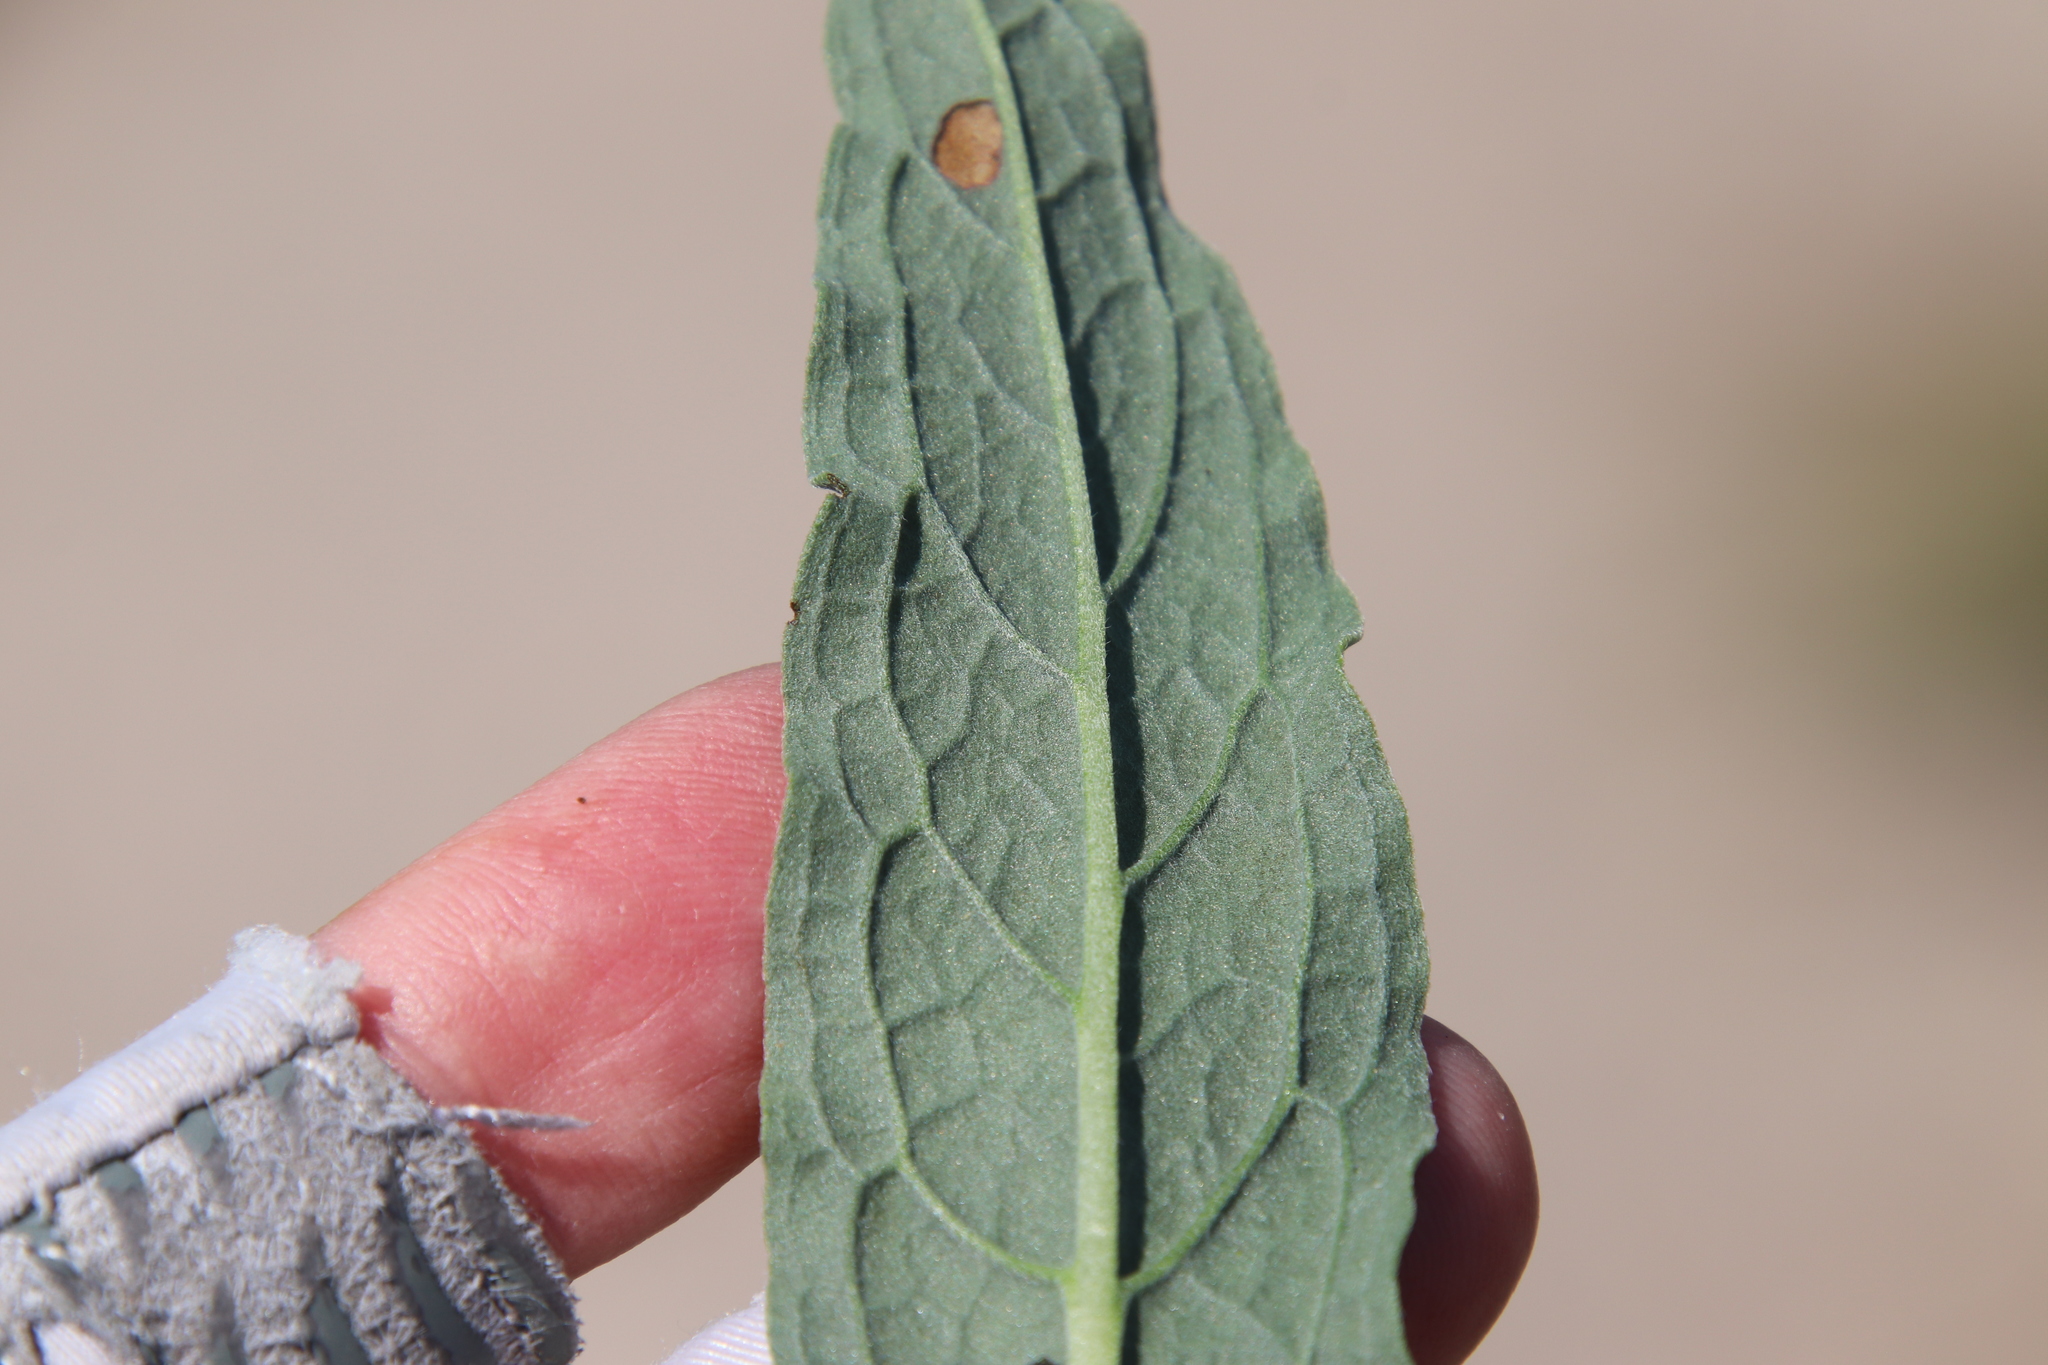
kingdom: Plantae
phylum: Tracheophyta
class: Magnoliopsida
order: Boraginales
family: Boraginaceae
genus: Cynoglossum
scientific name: Cynoglossum amabile
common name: Chinese hound's tongue
